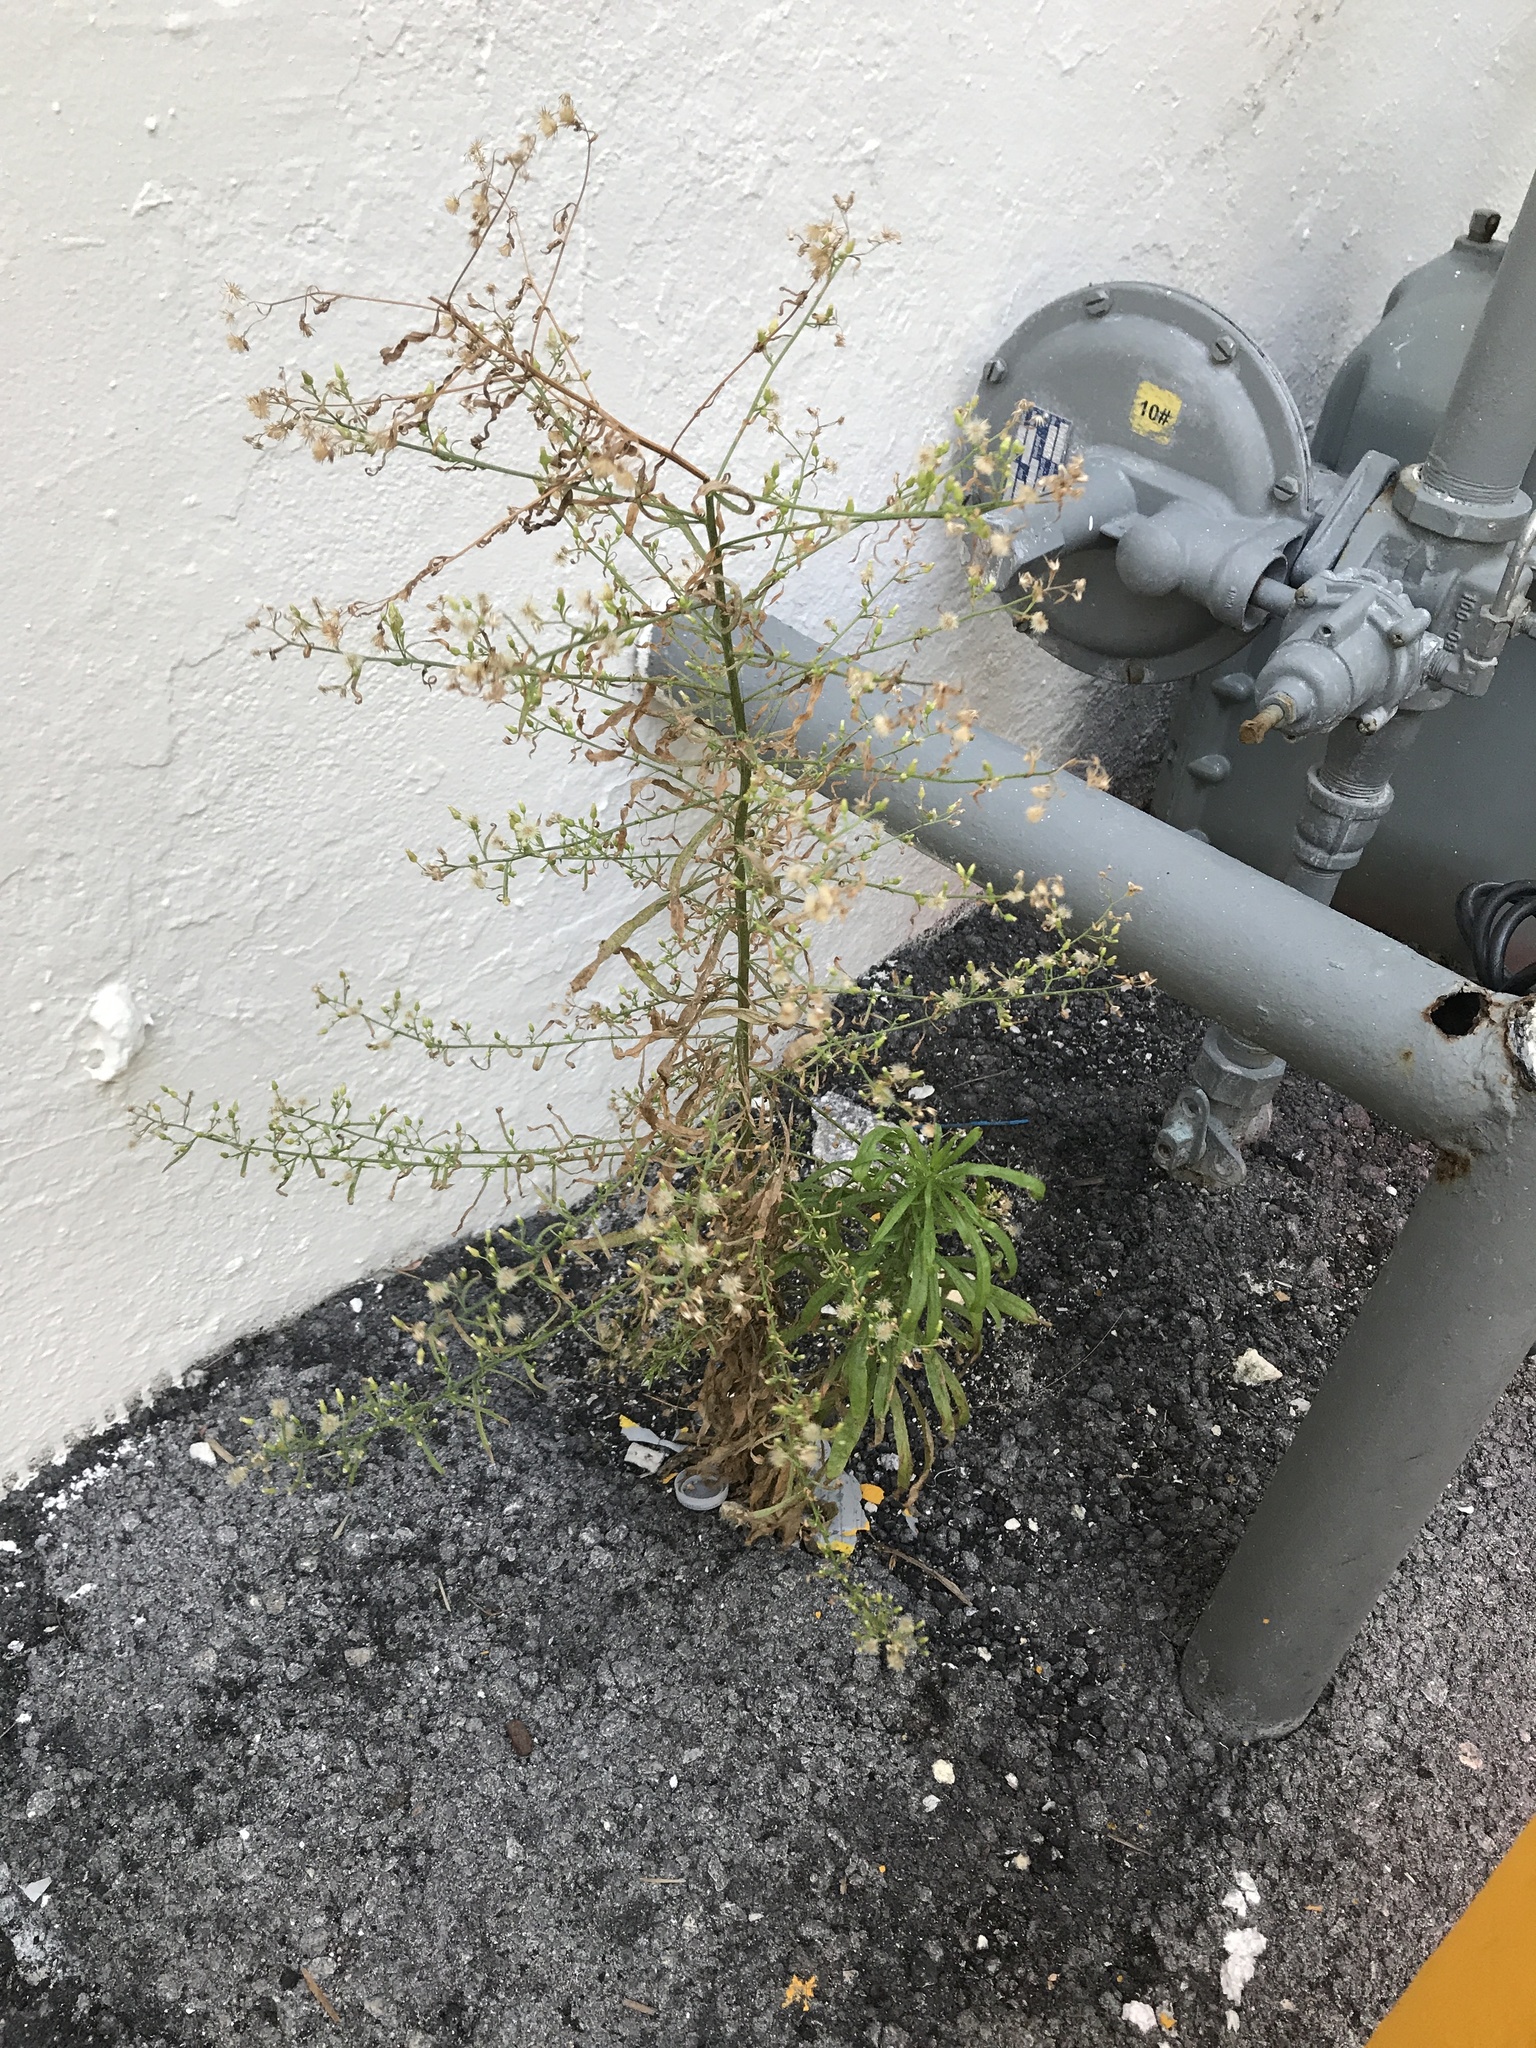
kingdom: Plantae
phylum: Tracheophyta
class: Magnoliopsida
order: Asterales
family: Asteraceae
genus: Erigeron
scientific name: Erigeron canadensis
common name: Canadian fleabane
